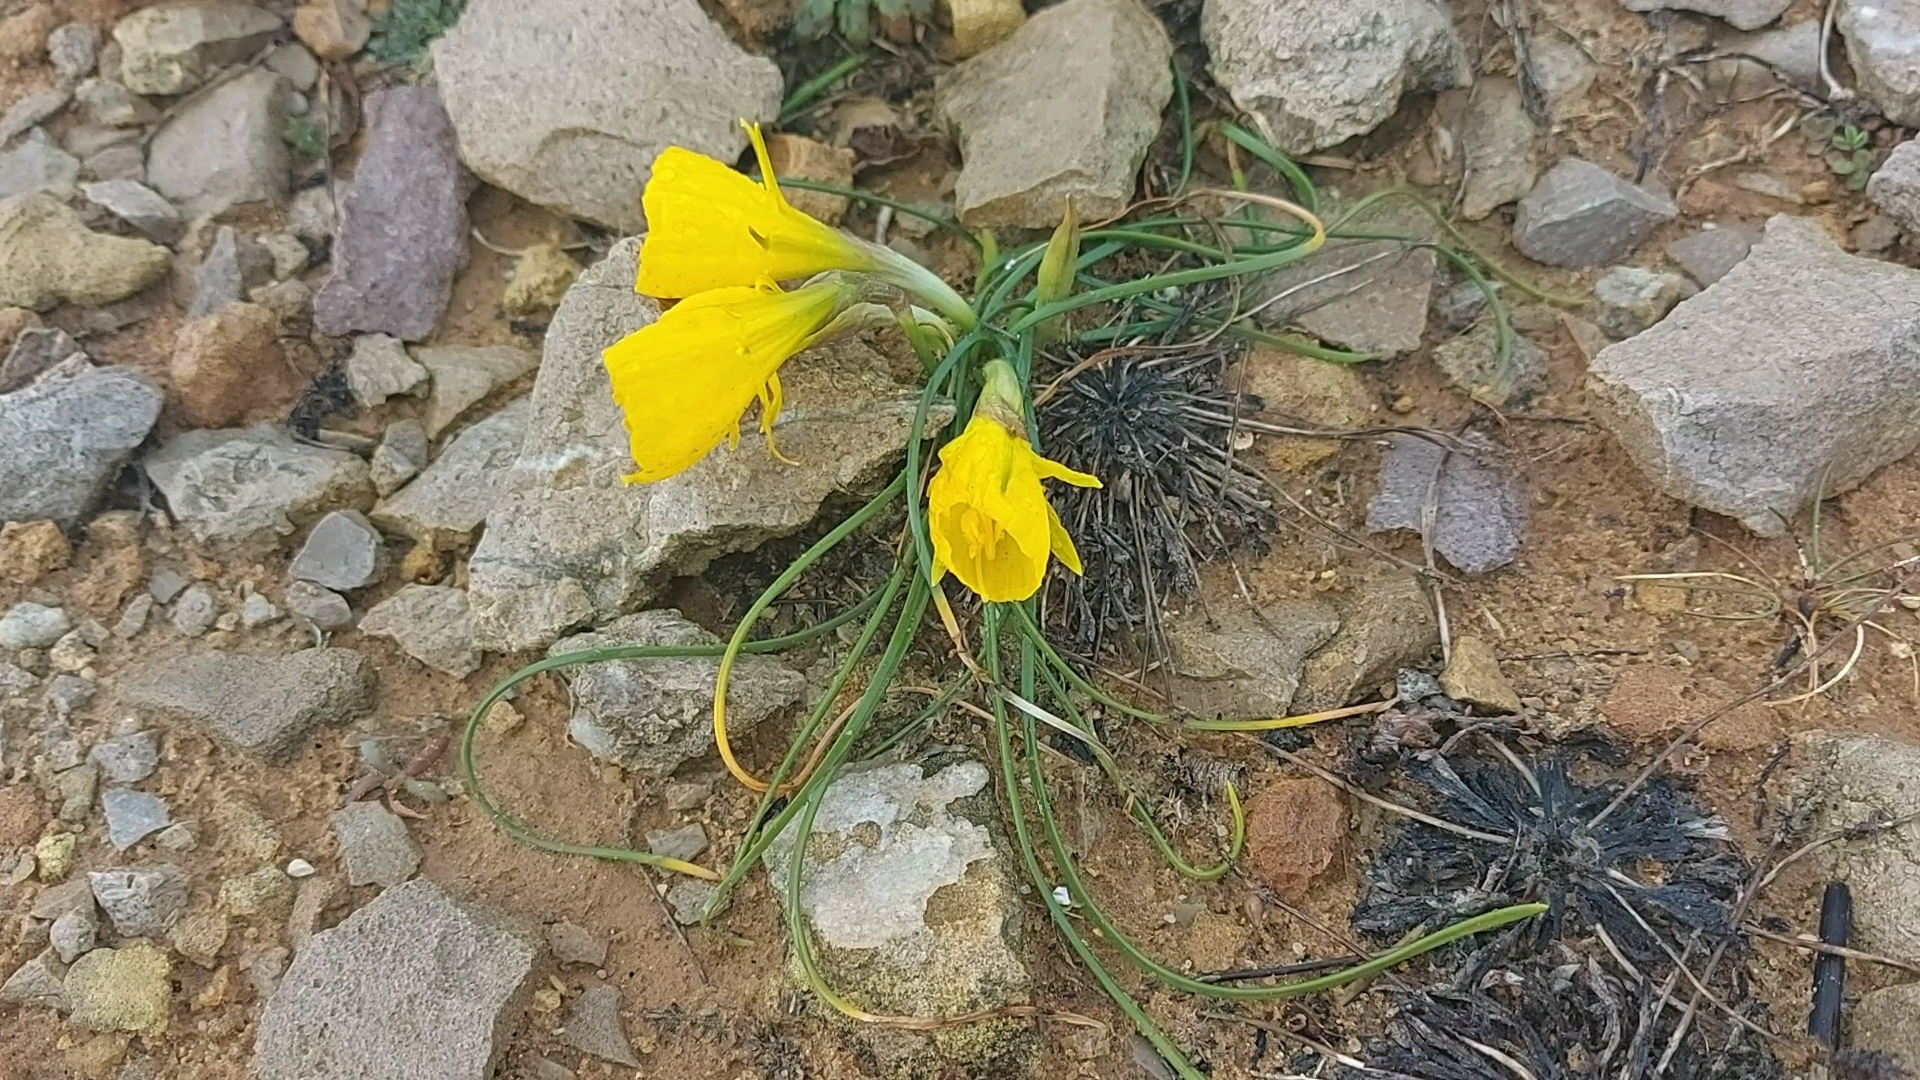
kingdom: Plantae
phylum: Tracheophyta
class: Liliopsida
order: Asparagales
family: Amaryllidaceae
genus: Narcissus
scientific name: Narcissus bulbocodium
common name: Hoop-petticoat daffodil
